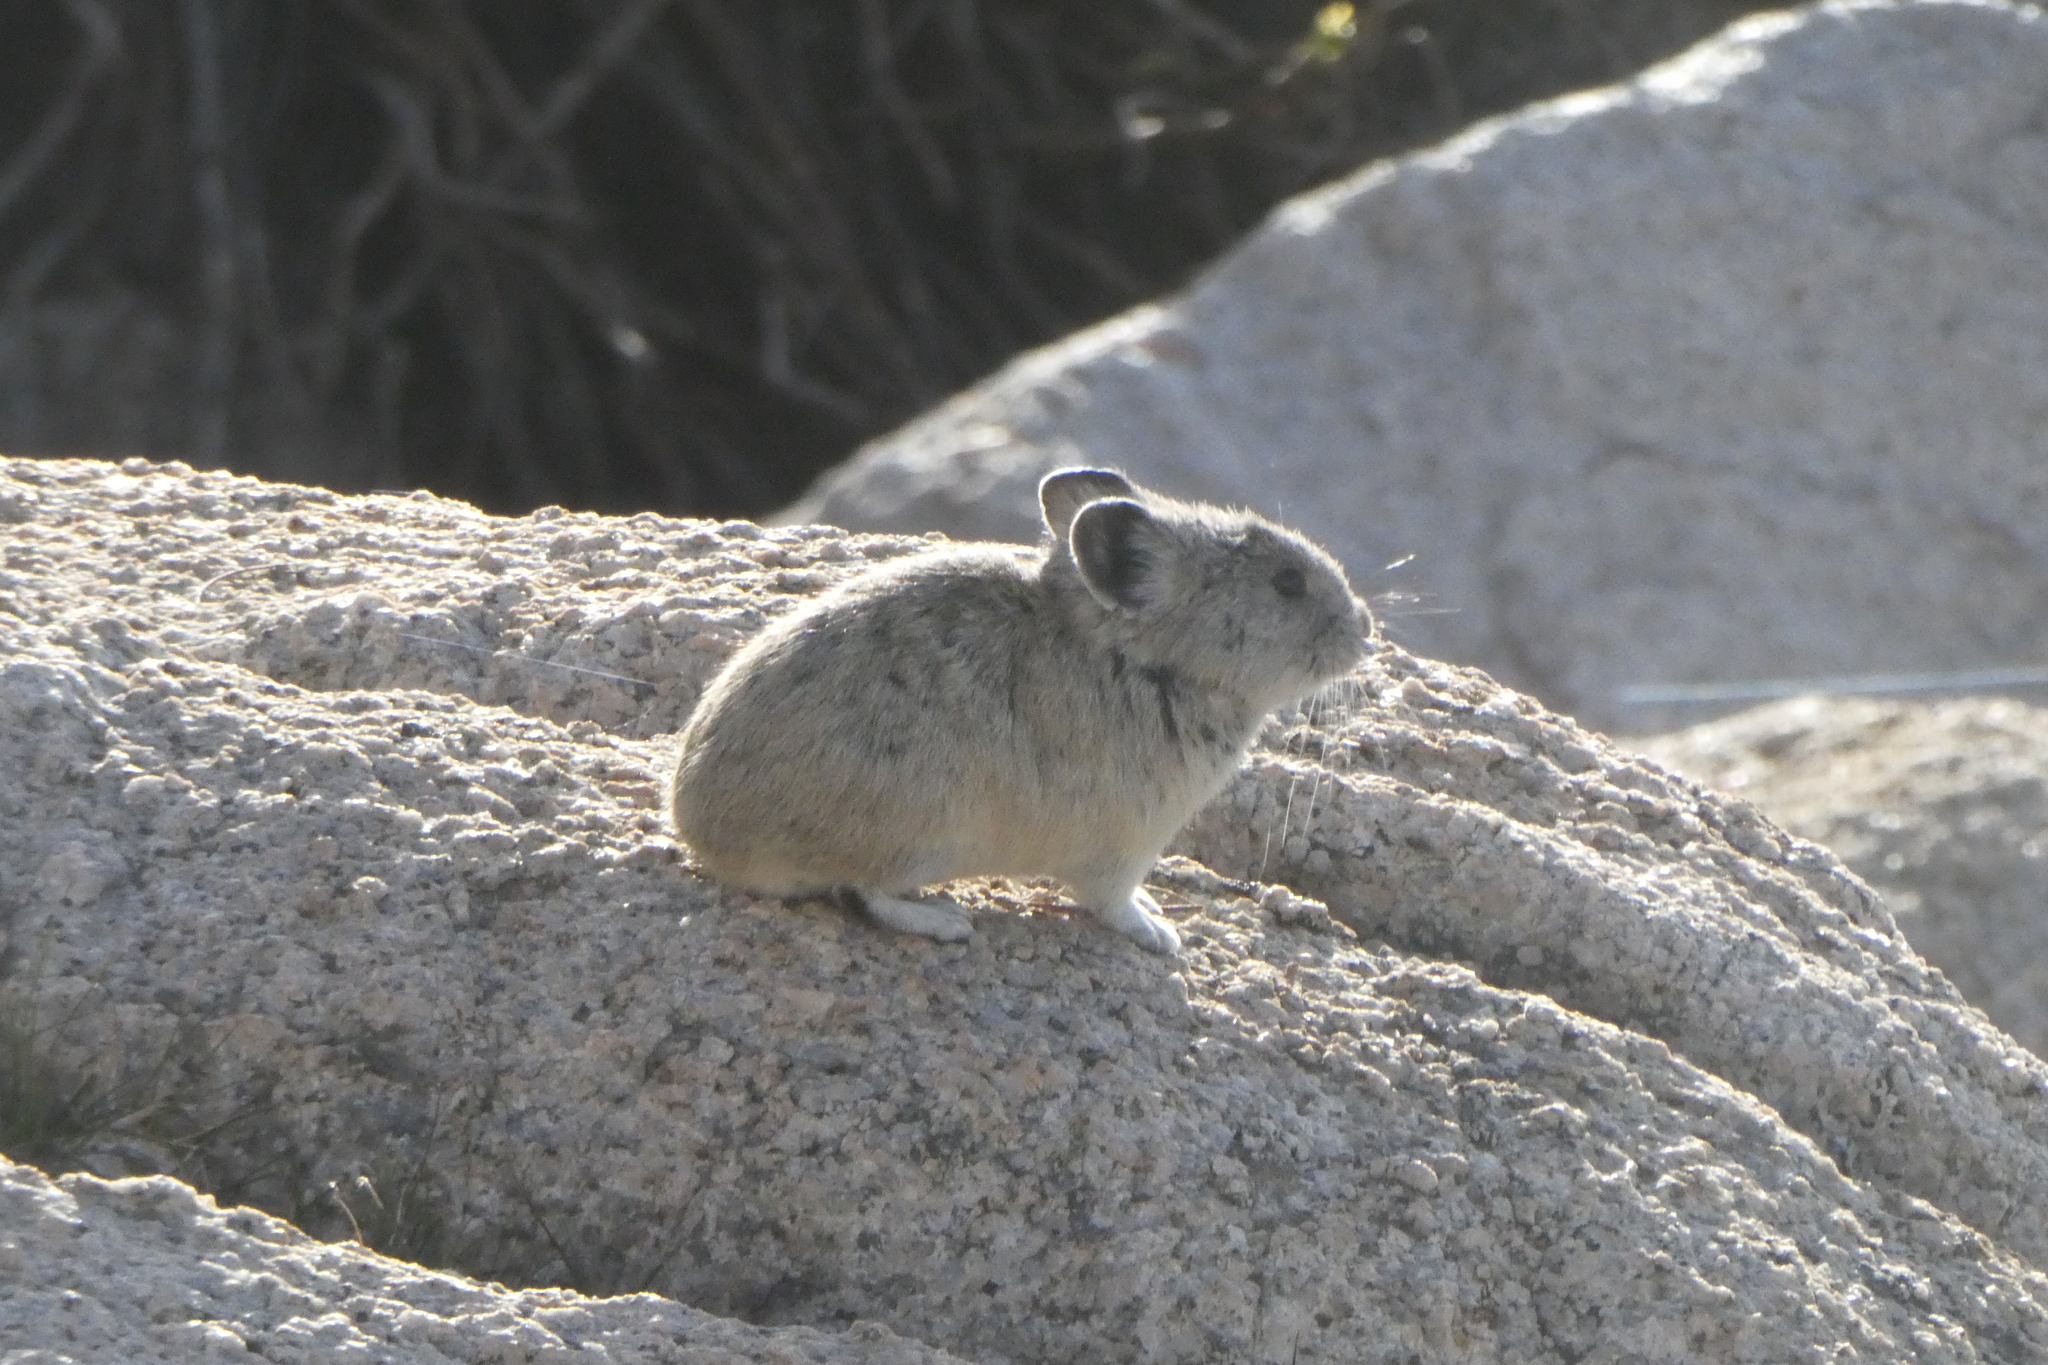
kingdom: Animalia
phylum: Chordata
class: Mammalia
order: Lagomorpha
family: Ochotonidae
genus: Ochotona
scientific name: Ochotona princeps
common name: American pika
